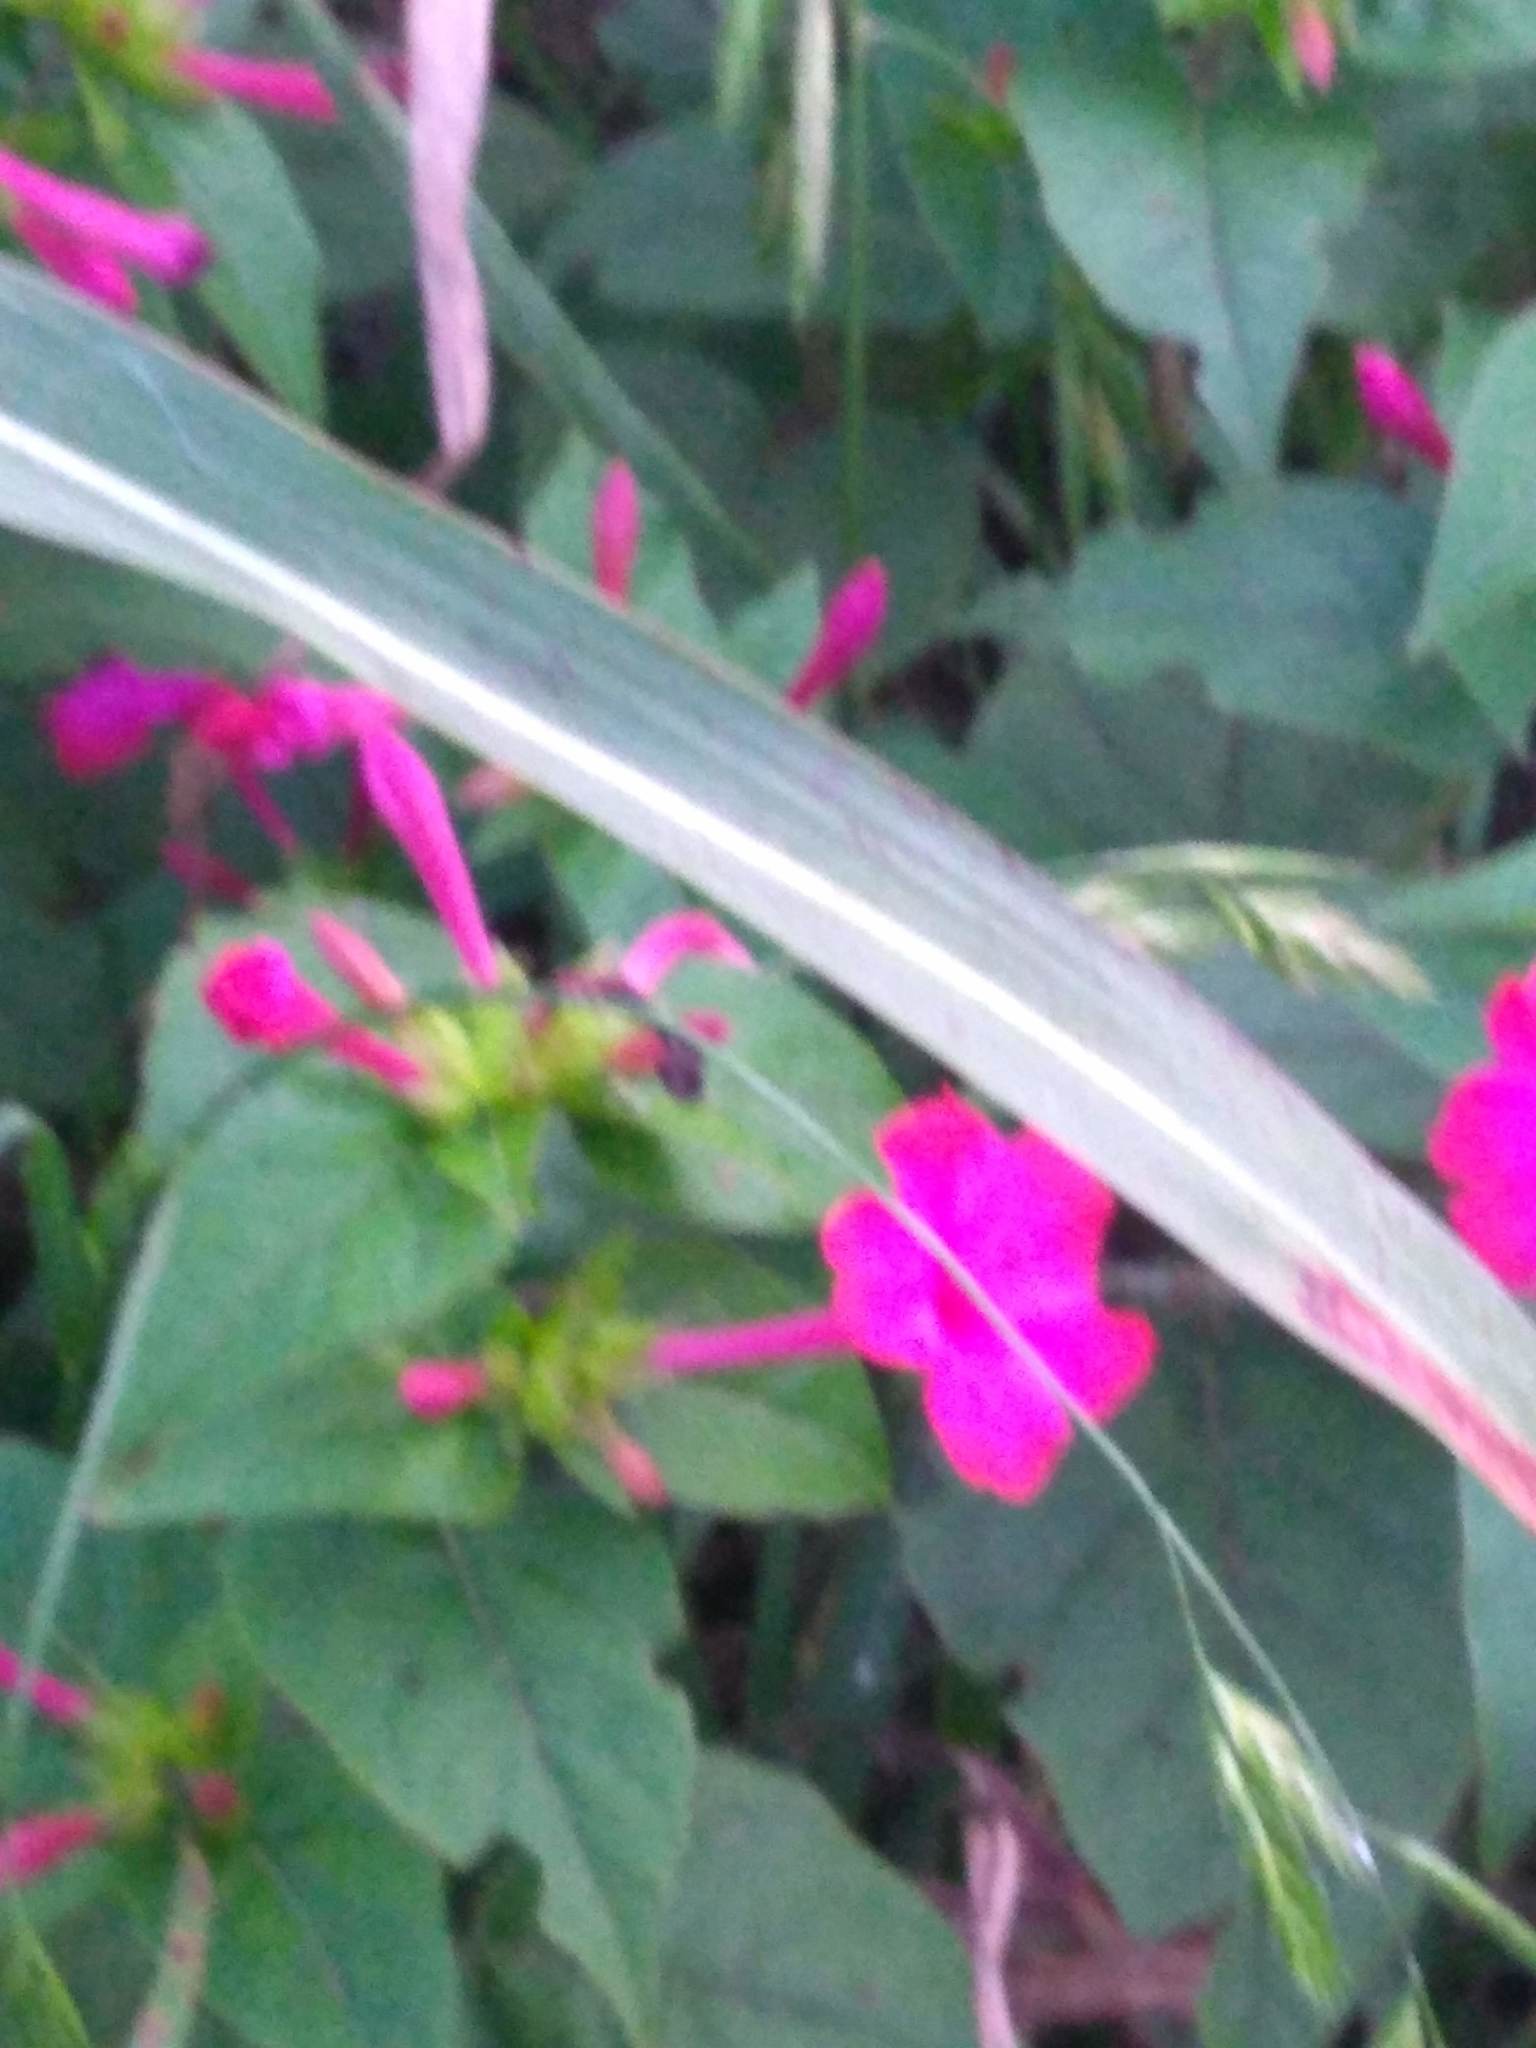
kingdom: Plantae
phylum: Tracheophyta
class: Magnoliopsida
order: Caryophyllales
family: Nyctaginaceae
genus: Mirabilis
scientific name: Mirabilis jalapa
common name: Marvel-of-peru
